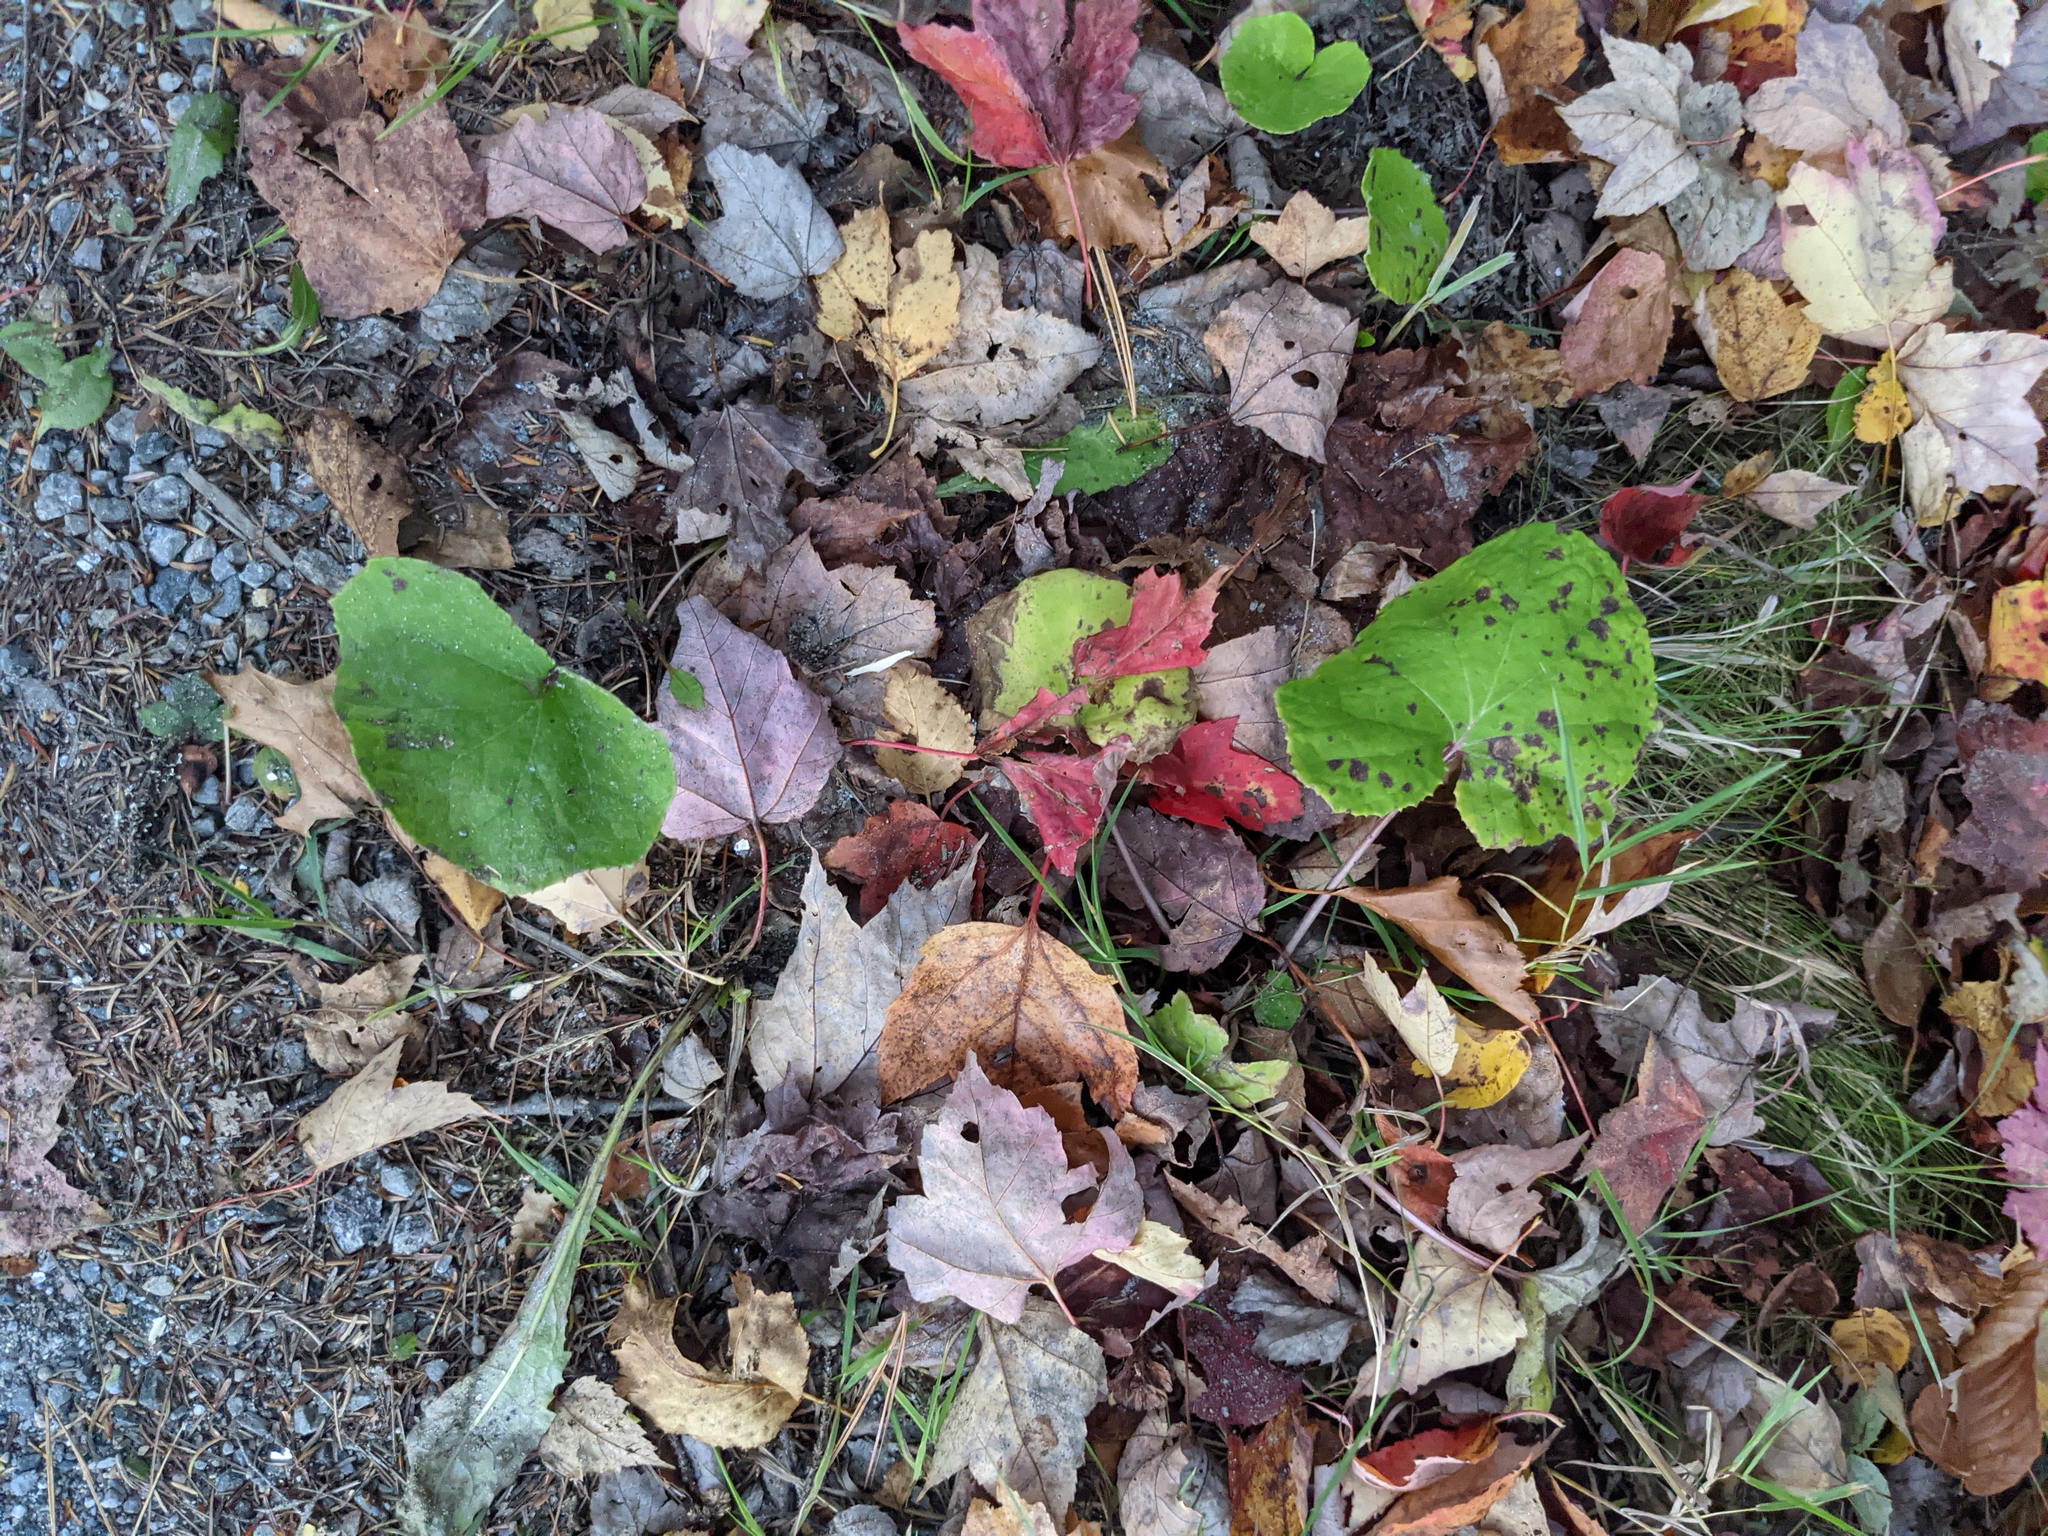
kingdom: Plantae
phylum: Tracheophyta
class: Magnoliopsida
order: Asterales
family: Asteraceae
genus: Tussilago
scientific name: Tussilago farfara
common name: Coltsfoot
